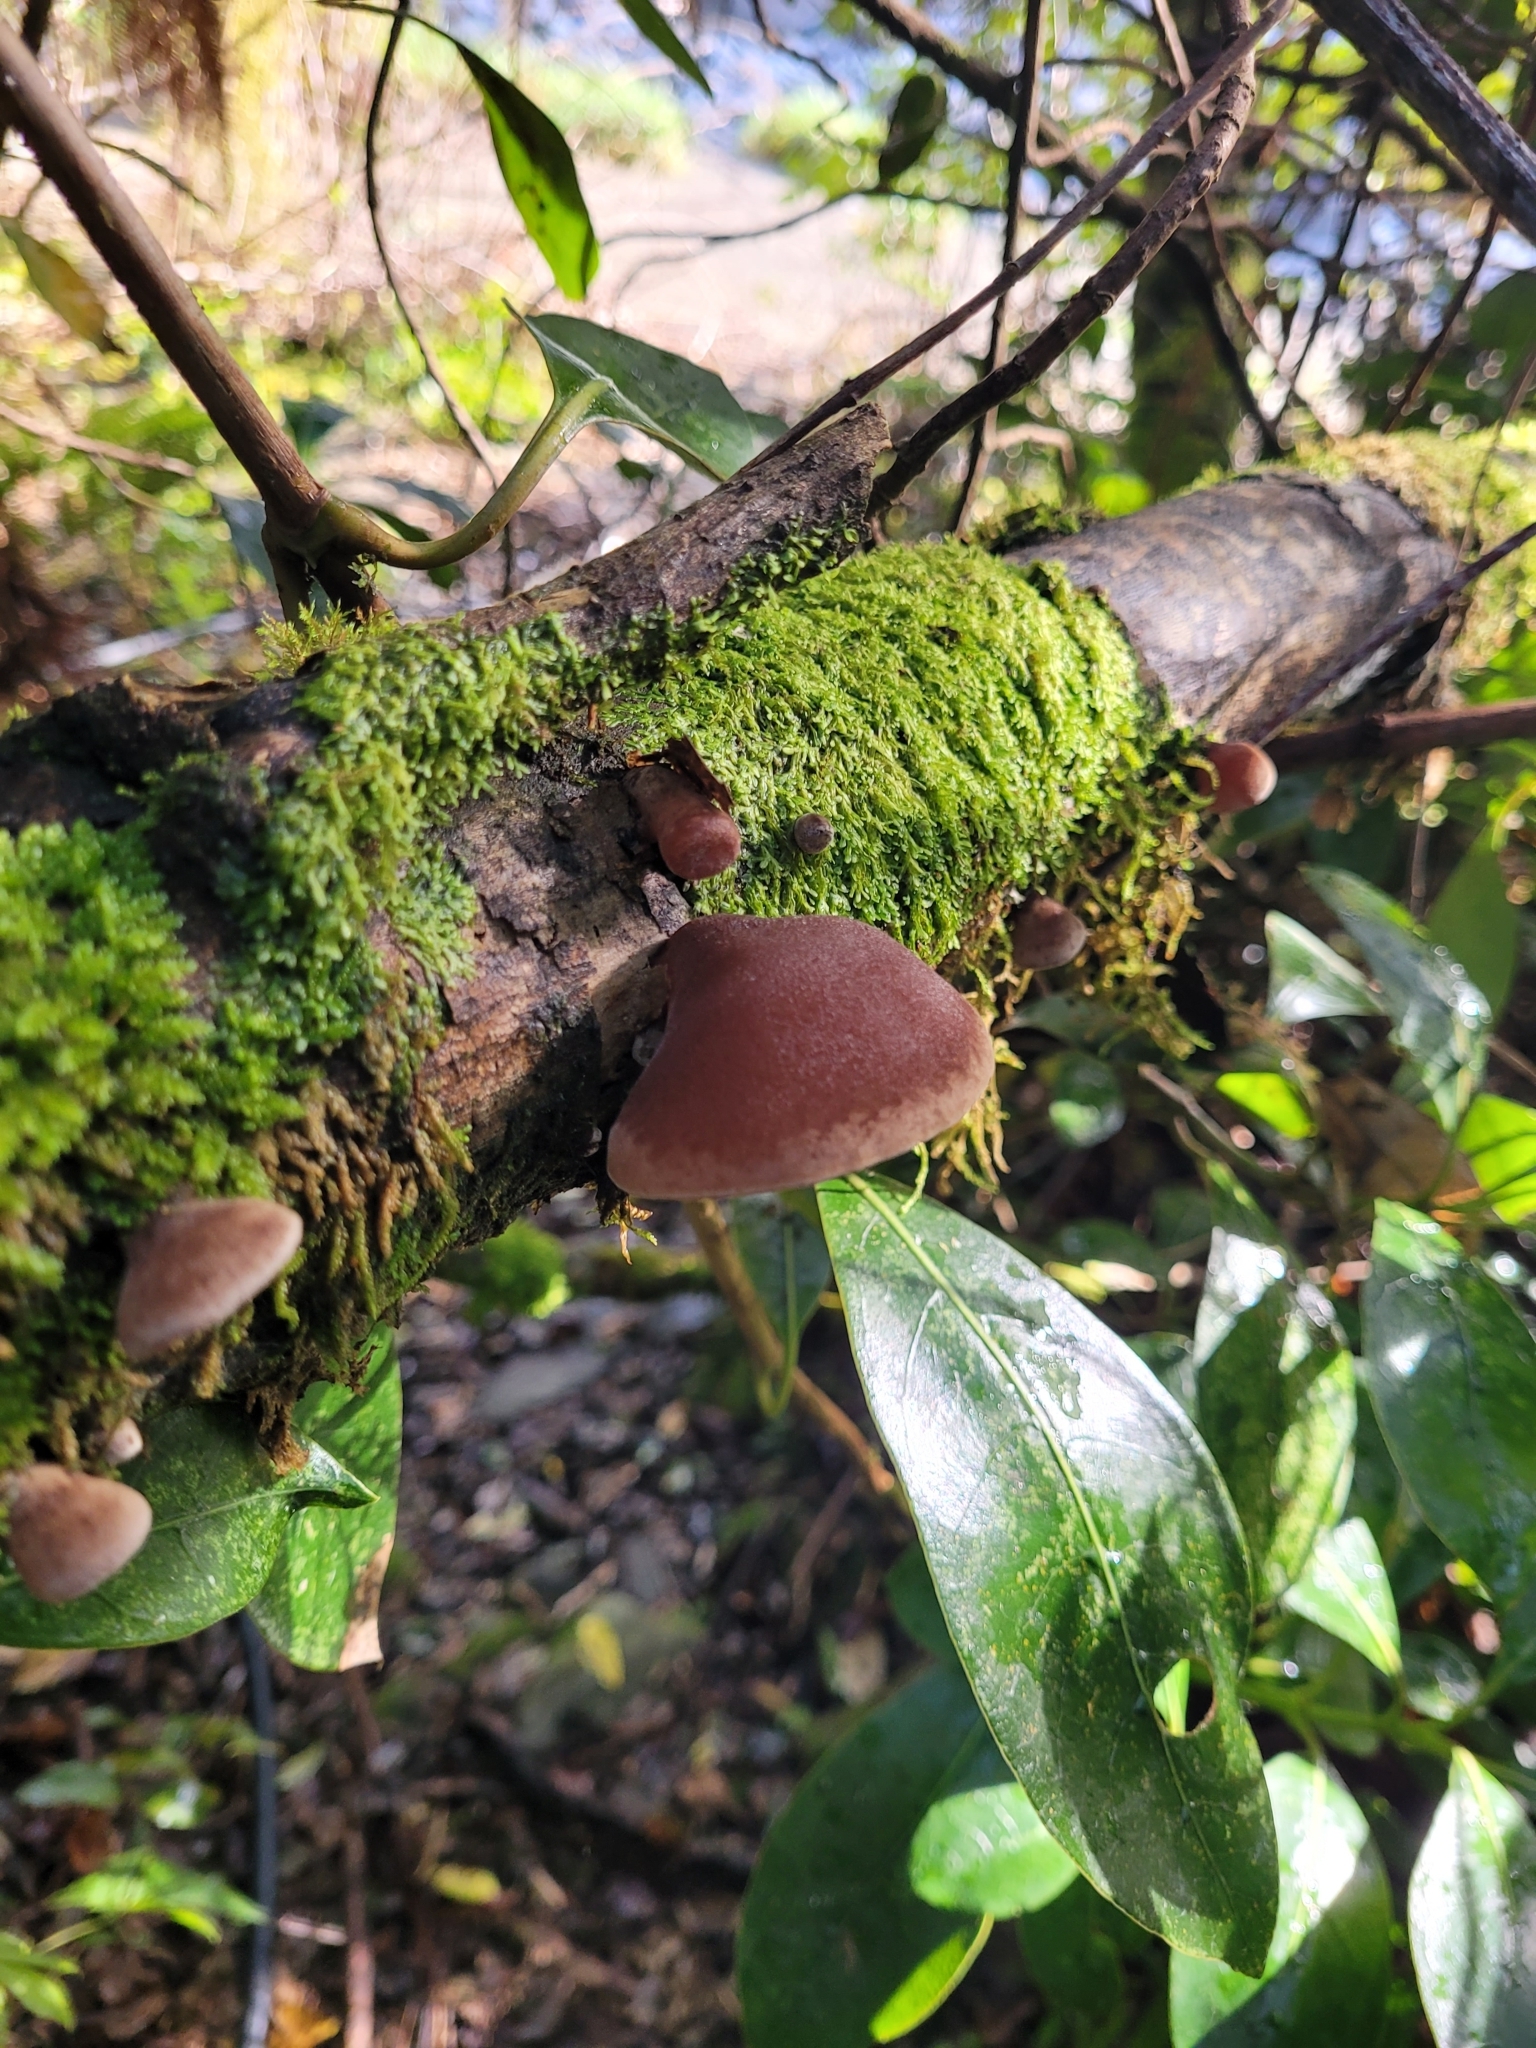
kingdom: Fungi
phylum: Basidiomycota
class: Agaricomycetes
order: Auriculariales
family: Auriculariaceae
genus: Auricularia
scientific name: Auricularia cornea
